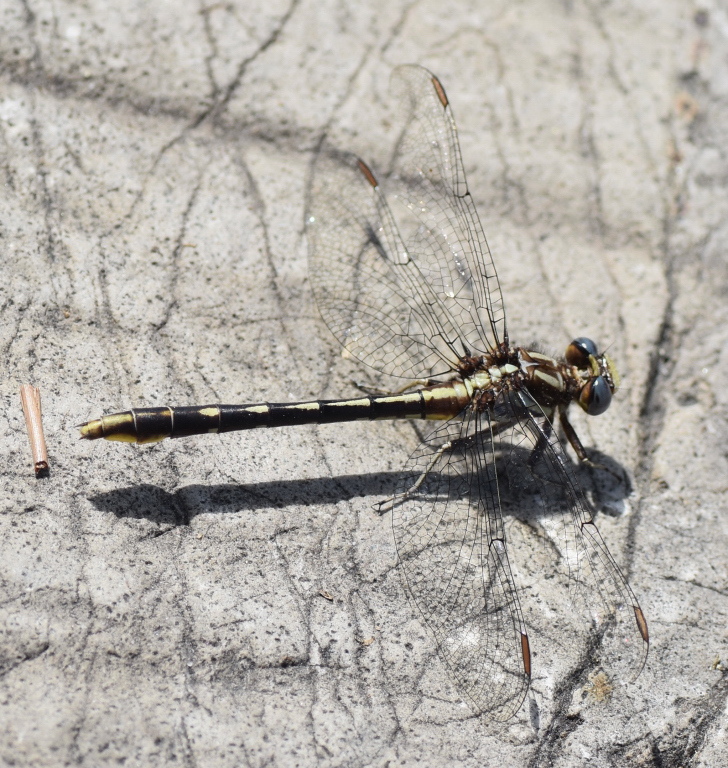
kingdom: Animalia
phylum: Arthropoda
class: Insecta
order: Odonata
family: Gomphidae
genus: Phanogomphus
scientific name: Phanogomphus exilis
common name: Lancet clubtail
